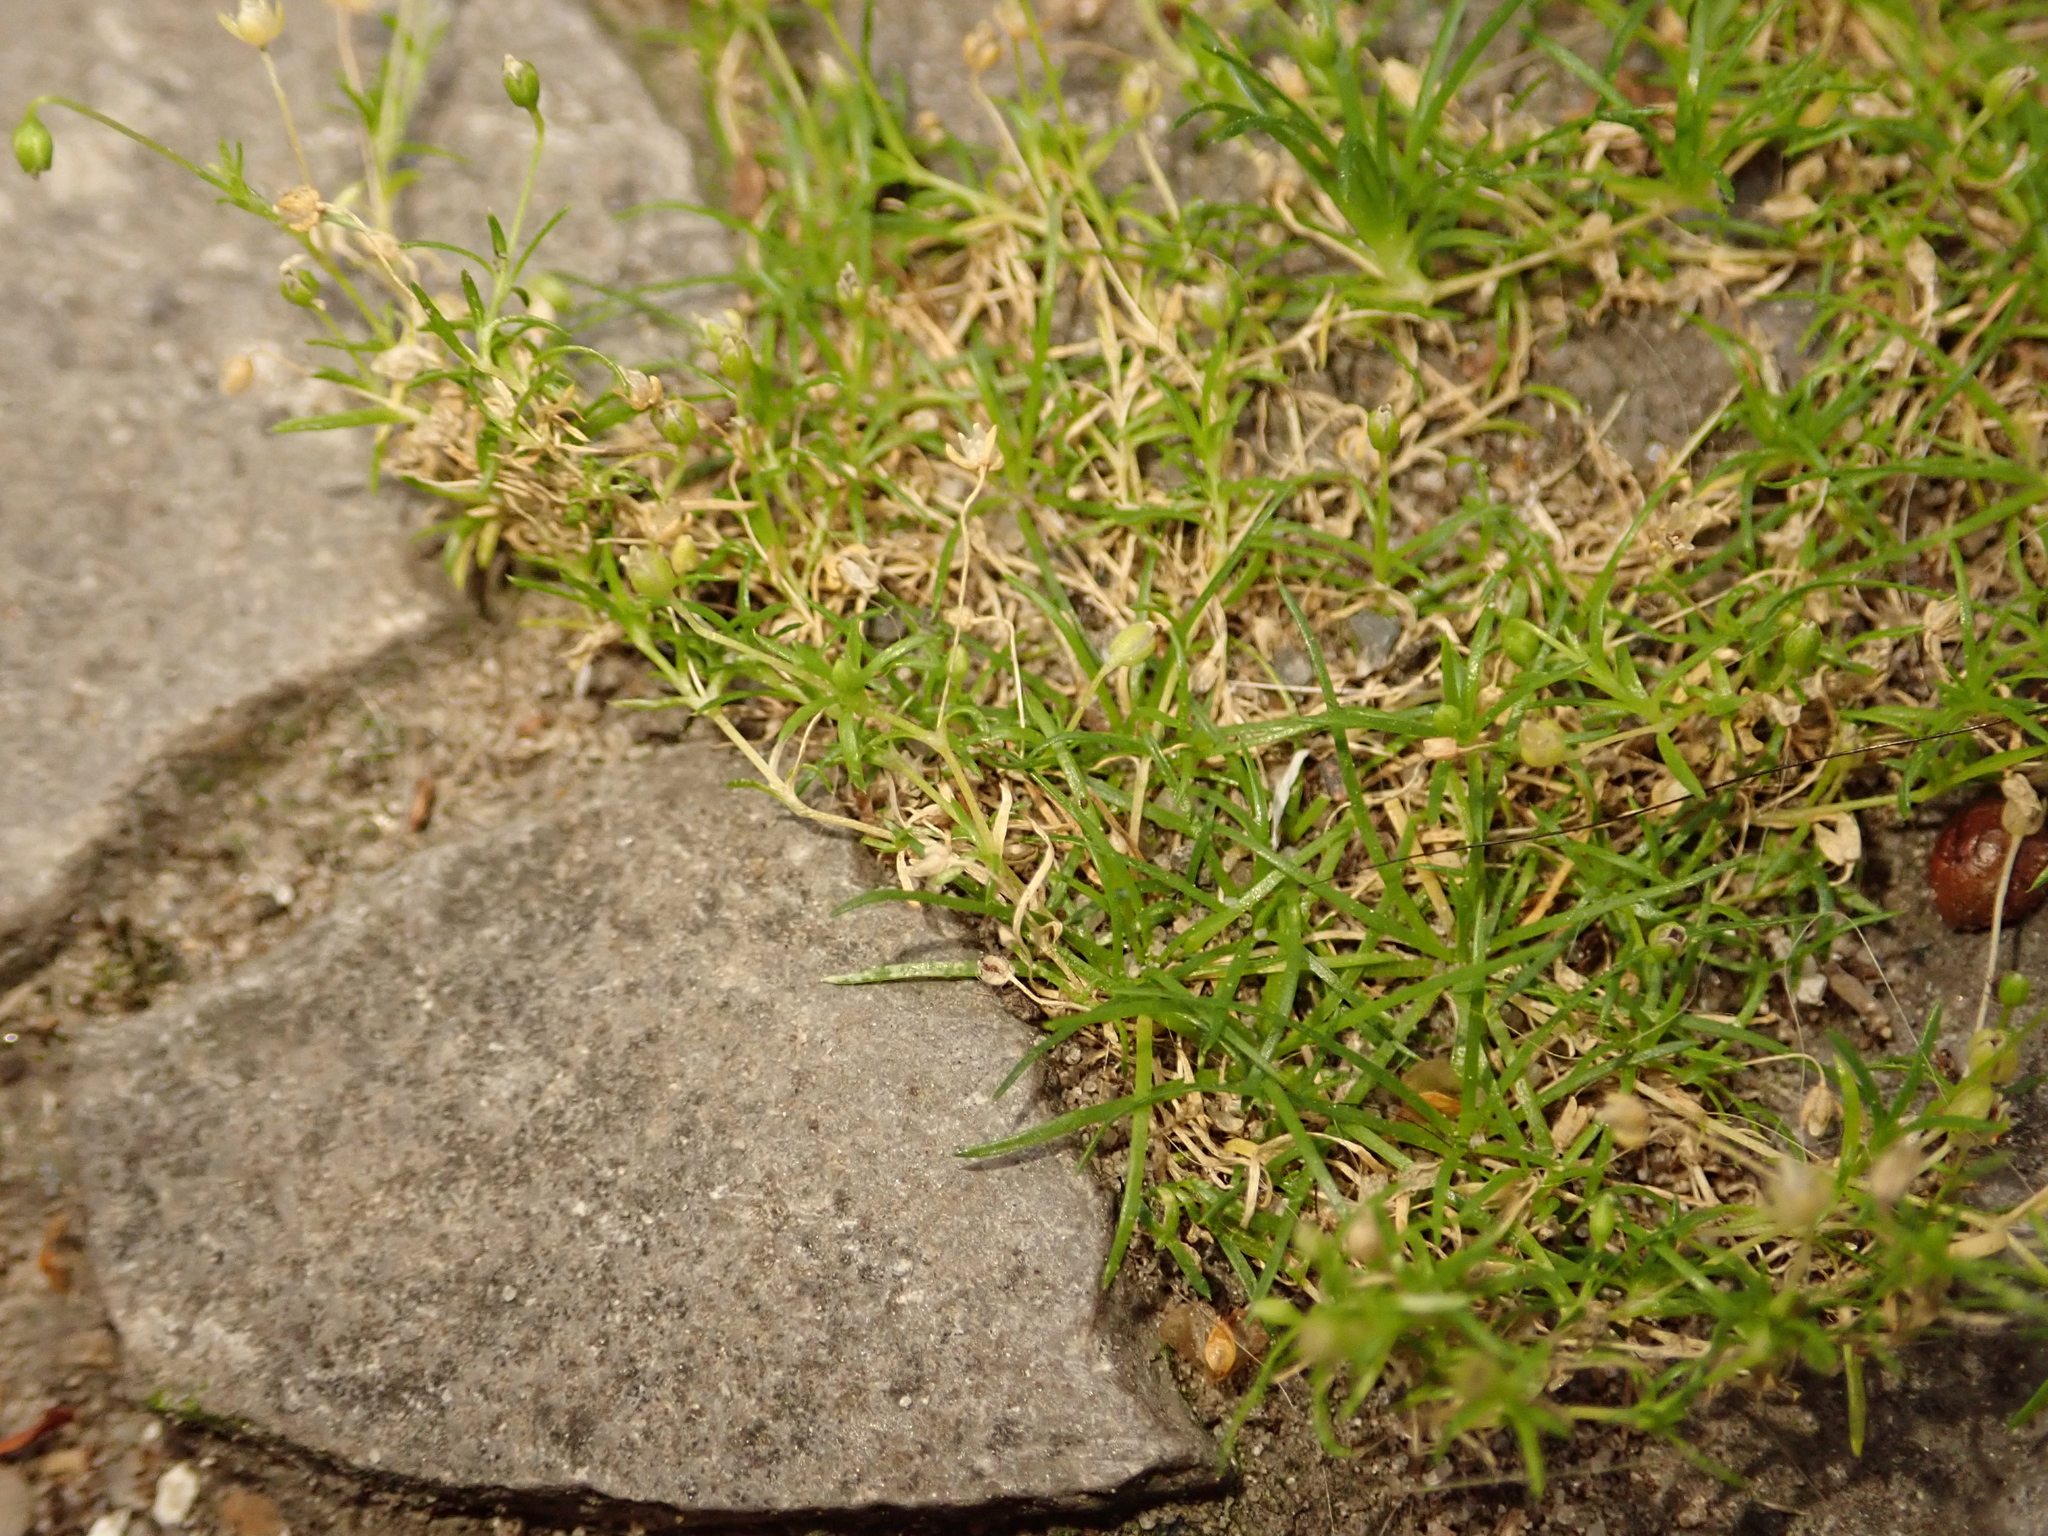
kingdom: Plantae
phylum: Tracheophyta
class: Magnoliopsida
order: Caryophyllales
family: Caryophyllaceae
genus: Sagina
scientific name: Sagina procumbens
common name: Procumbent pearlwort
